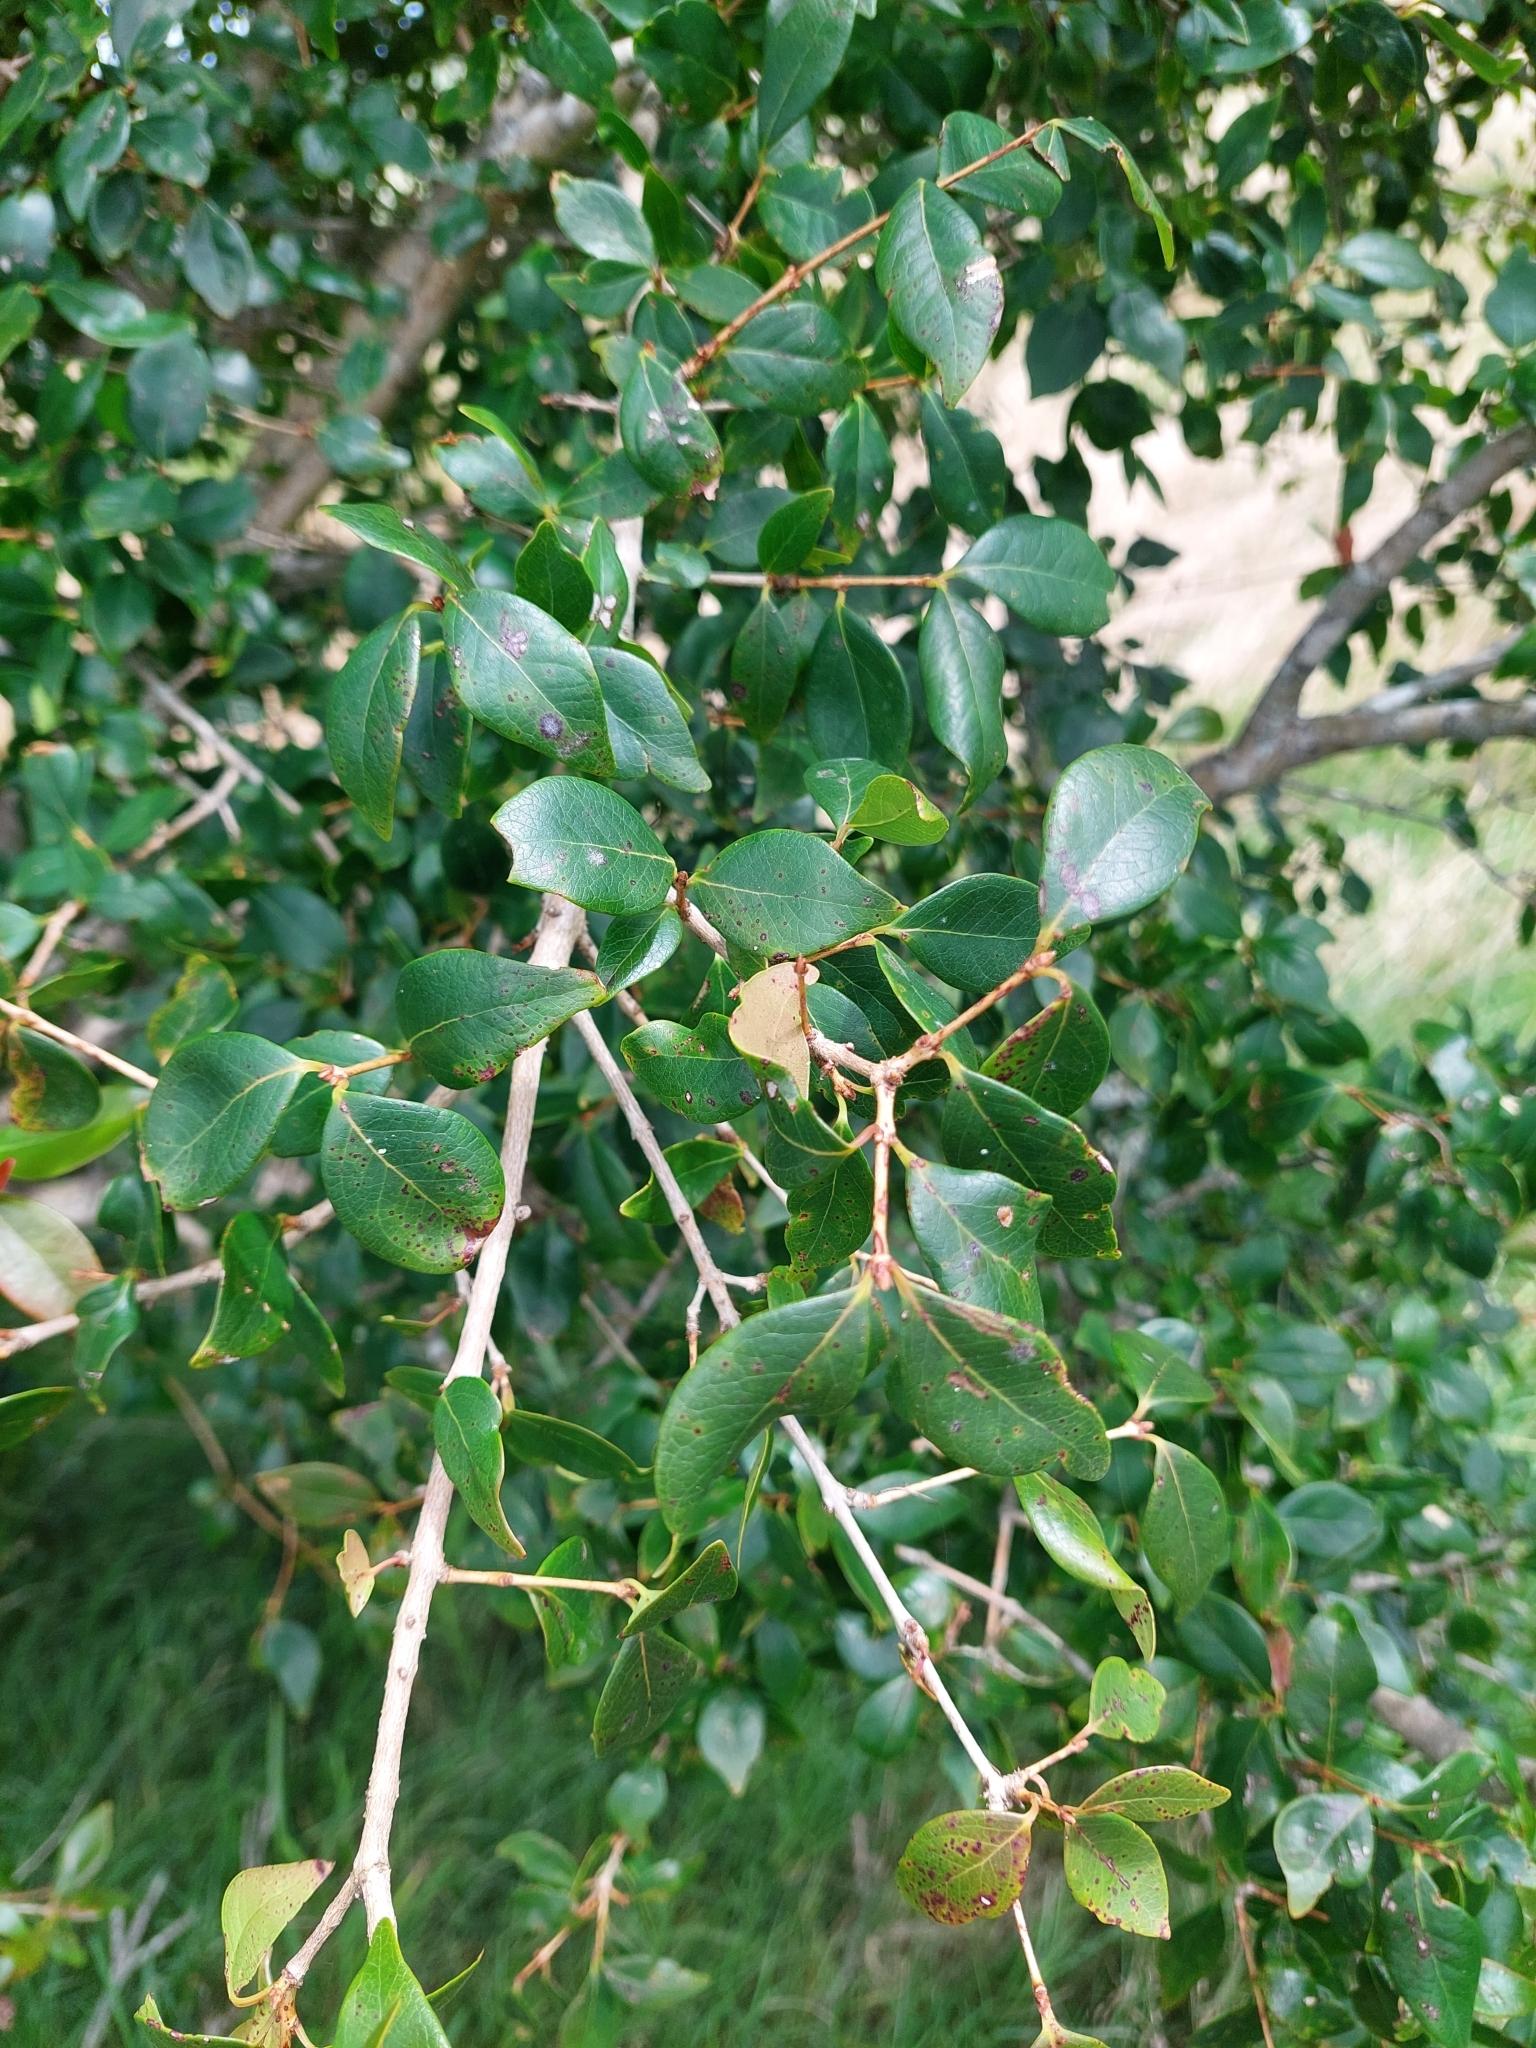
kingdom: Plantae
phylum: Tracheophyta
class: Magnoliopsida
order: Myrtales
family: Myrtaceae
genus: Eugenia
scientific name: Eugenia uniflora
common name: Surinam cherry
